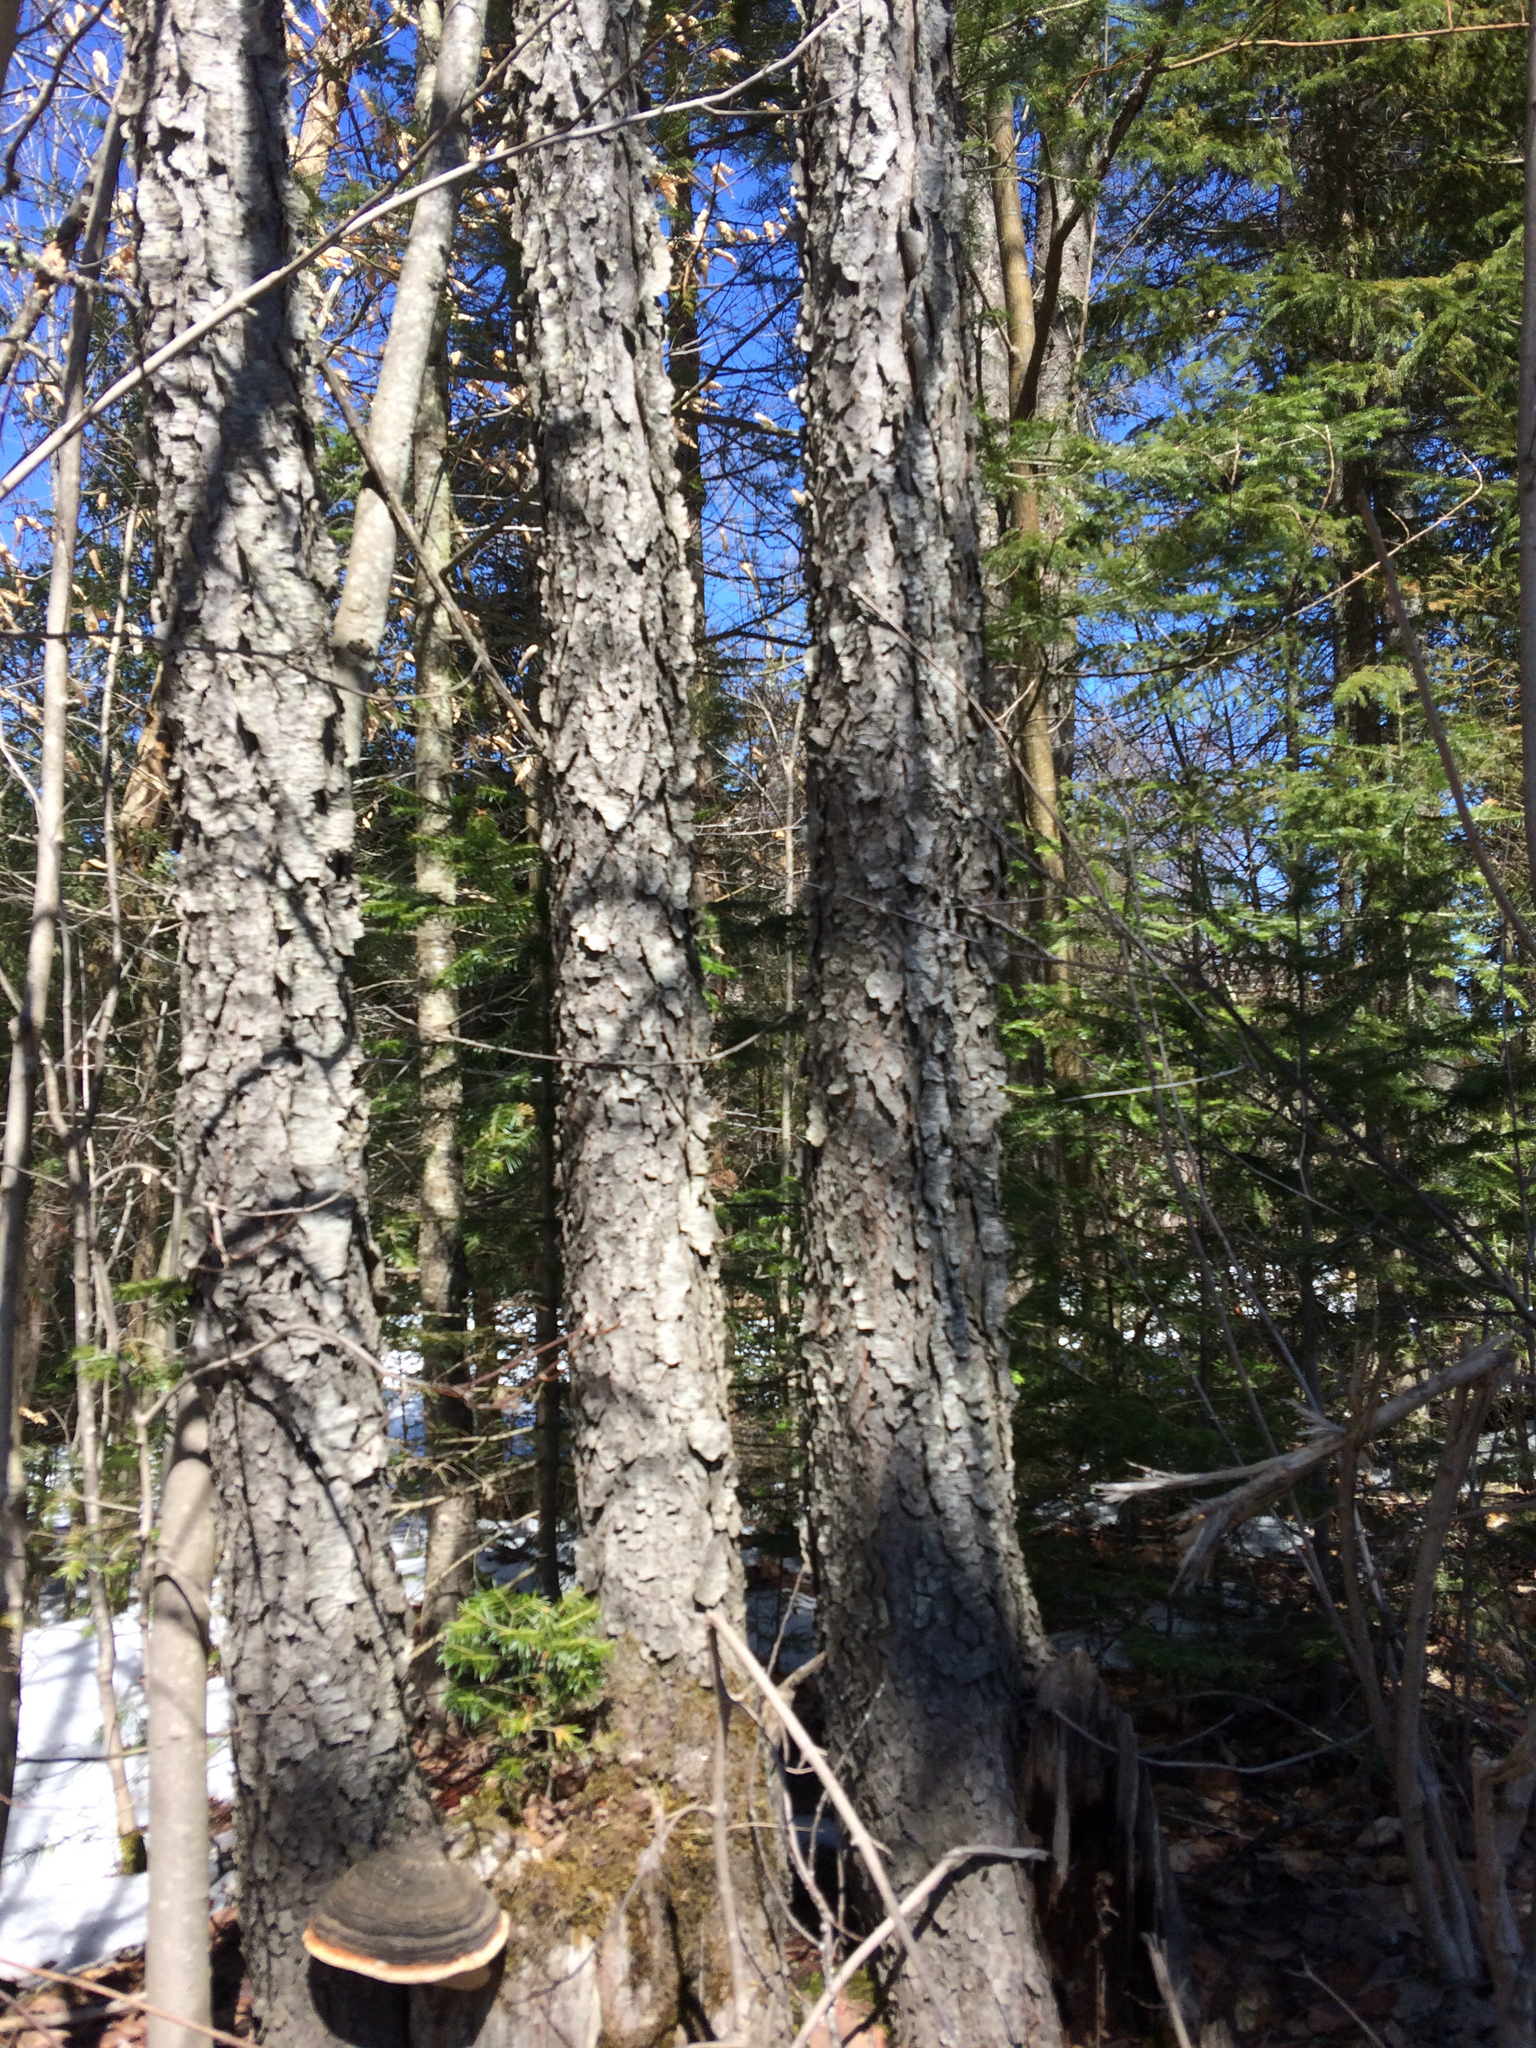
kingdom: Plantae
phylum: Tracheophyta
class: Magnoliopsida
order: Rosales
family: Rosaceae
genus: Prunus
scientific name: Prunus serotina
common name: Black cherry
